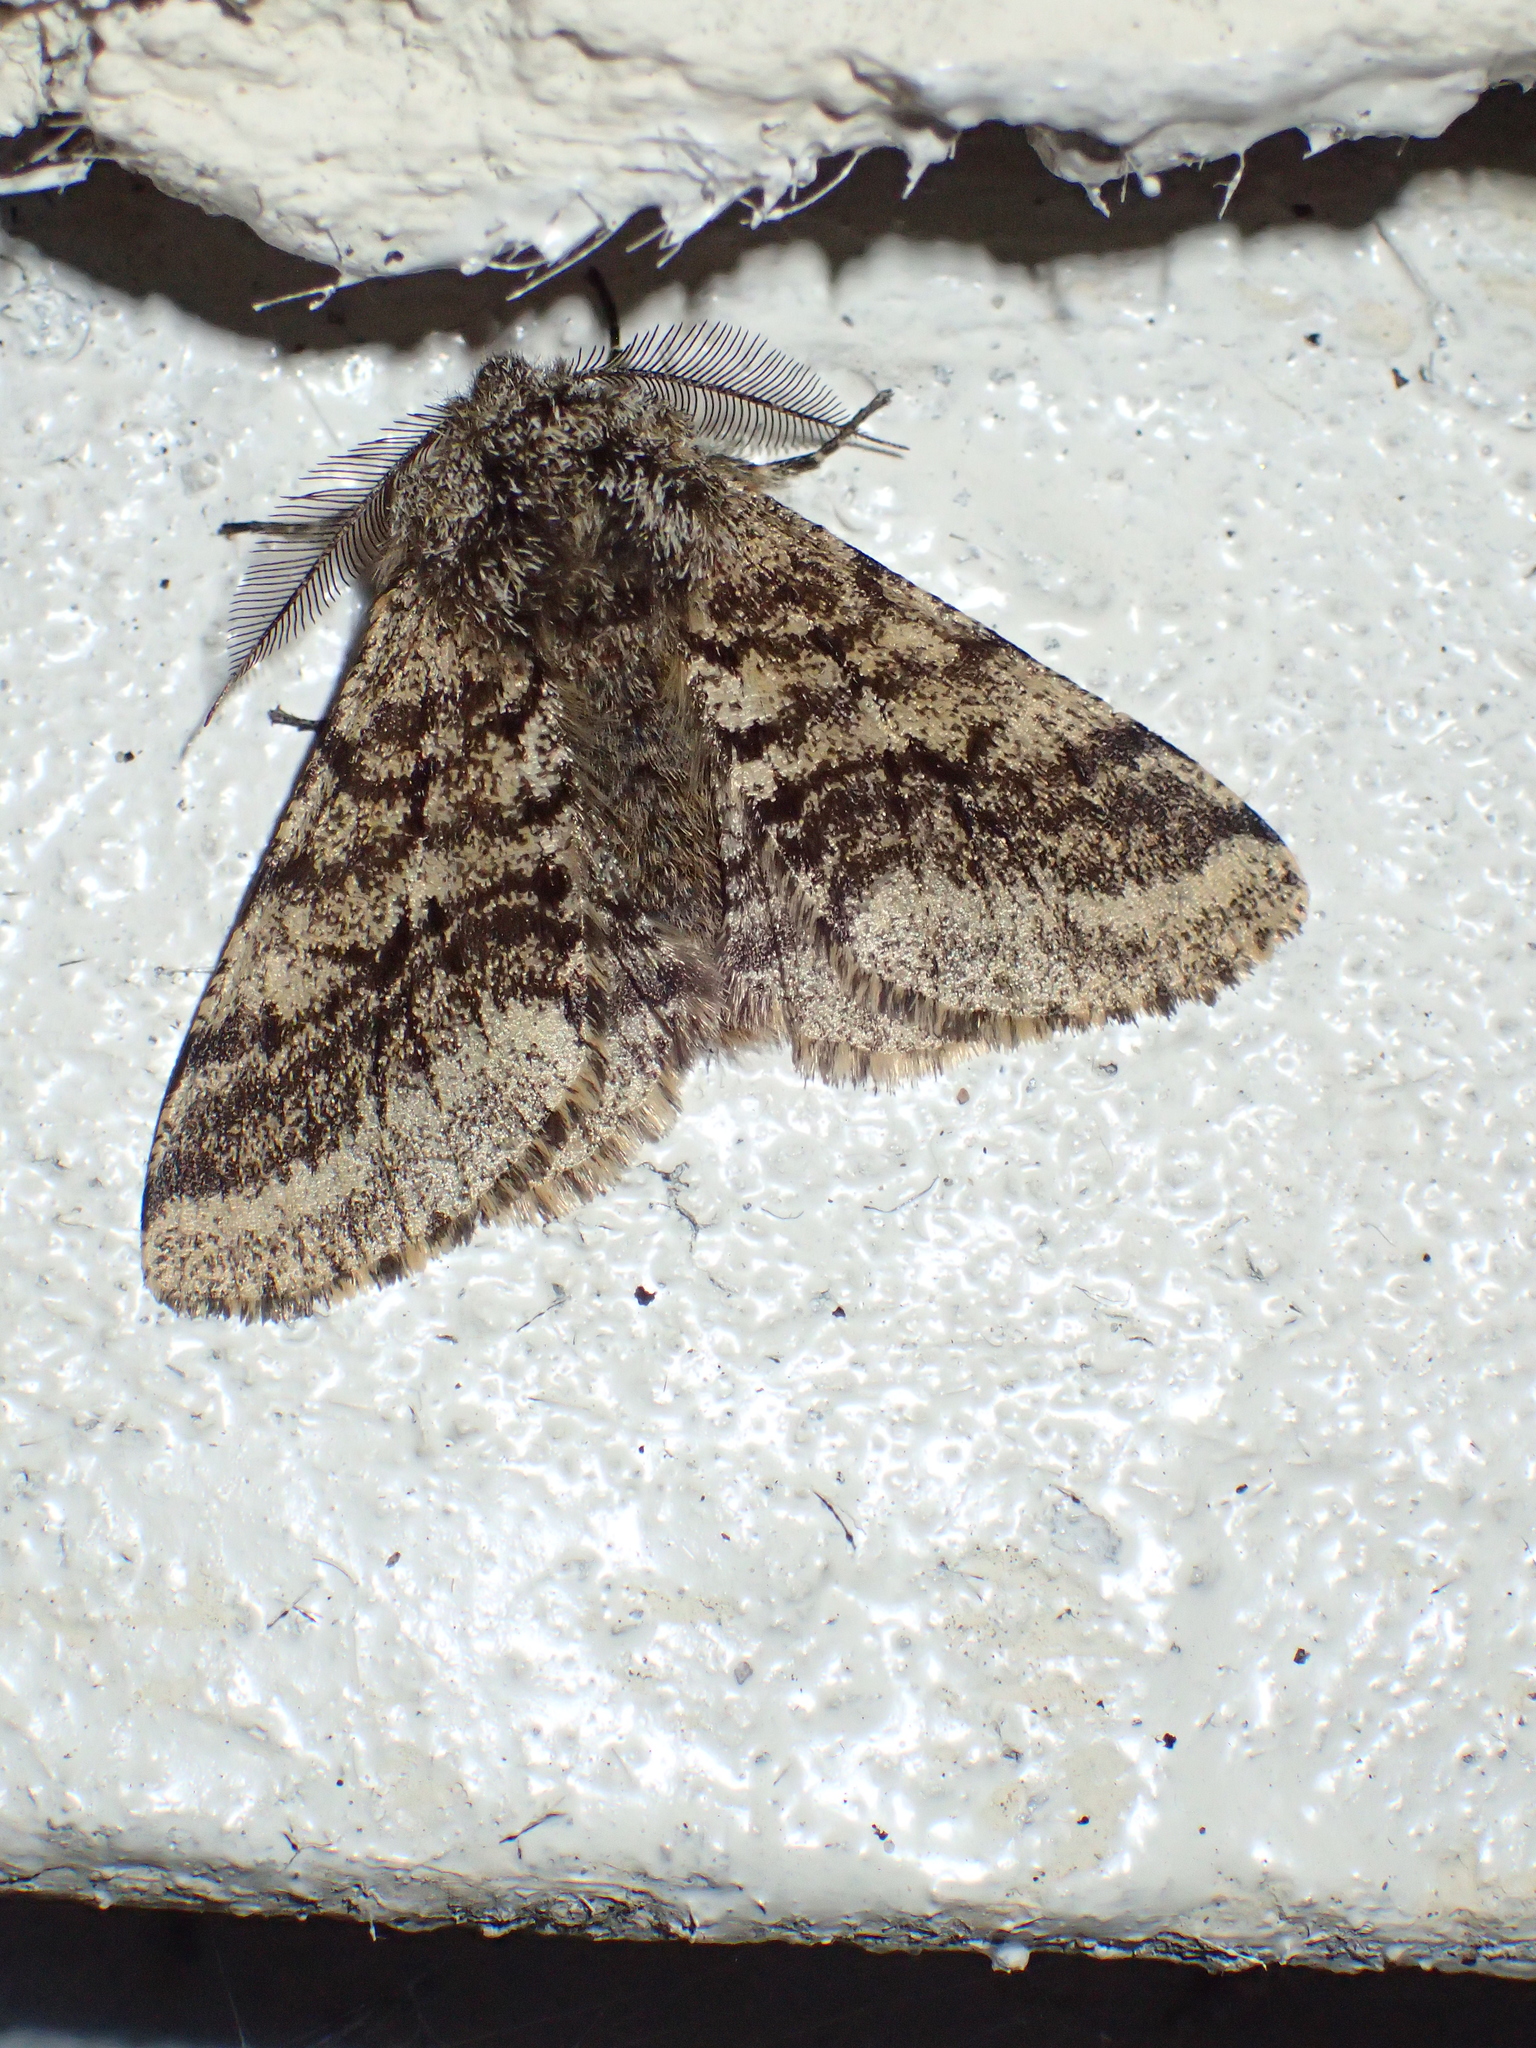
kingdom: Animalia
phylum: Arthropoda
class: Insecta
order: Lepidoptera
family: Geometridae
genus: Lycia
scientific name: Lycia hirtaria
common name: Brindled beauty
